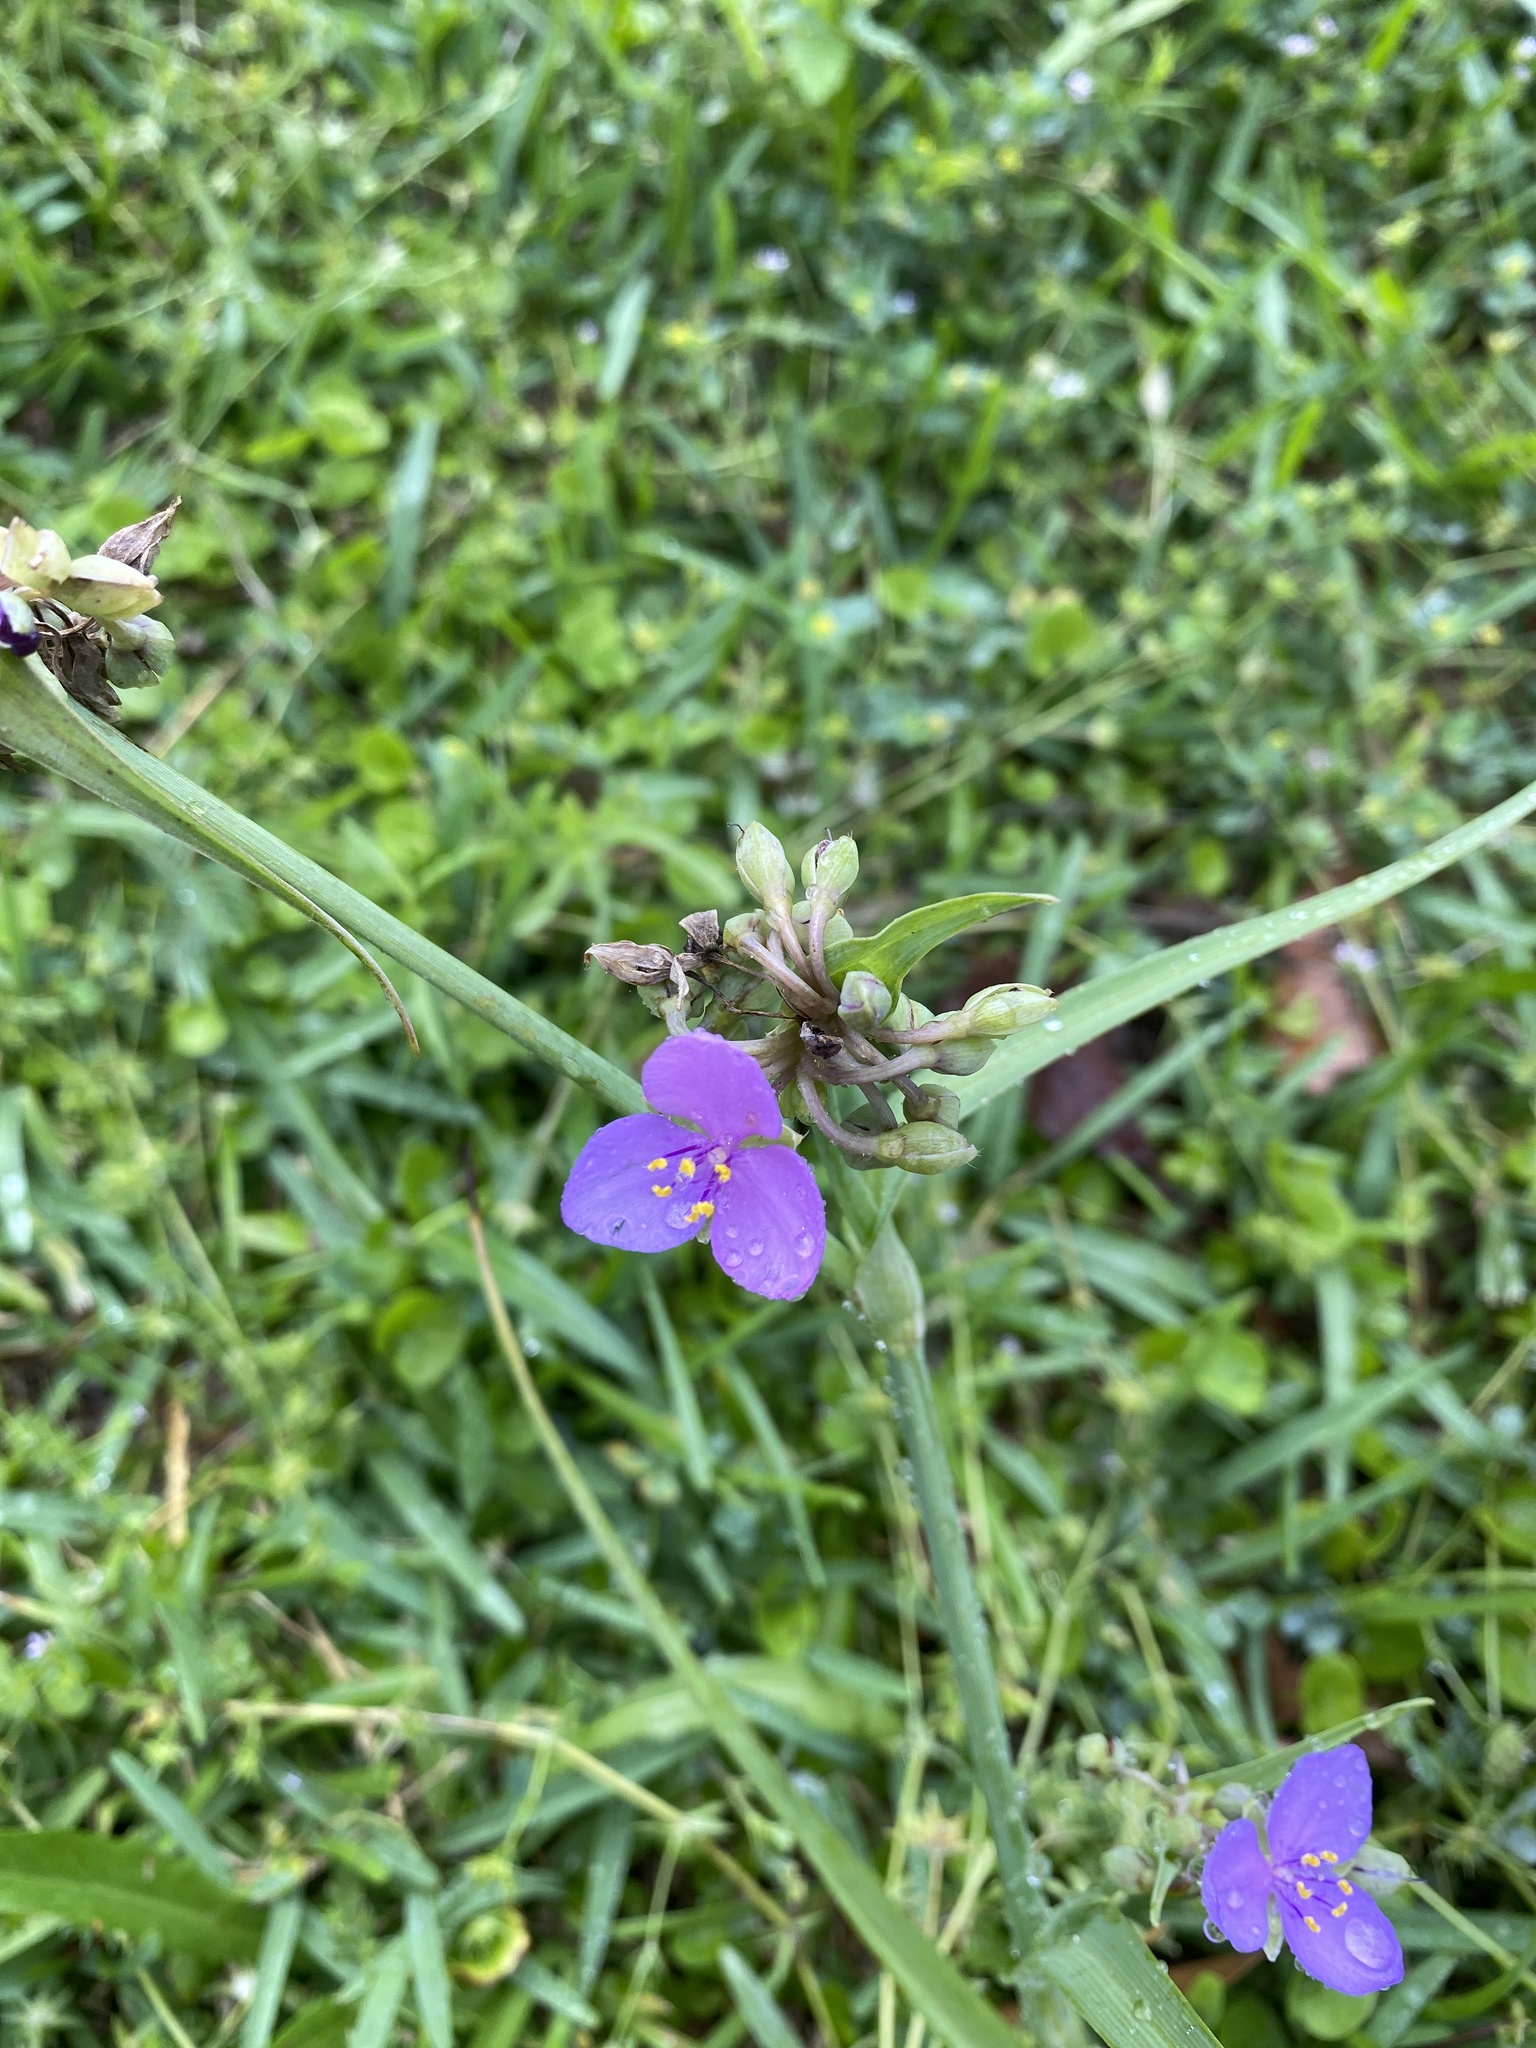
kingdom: Plantae
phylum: Tracheophyta
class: Liliopsida
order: Commelinales
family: Commelinaceae
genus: Tradescantia
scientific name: Tradescantia ohiensis
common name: Ohio spiderwort
